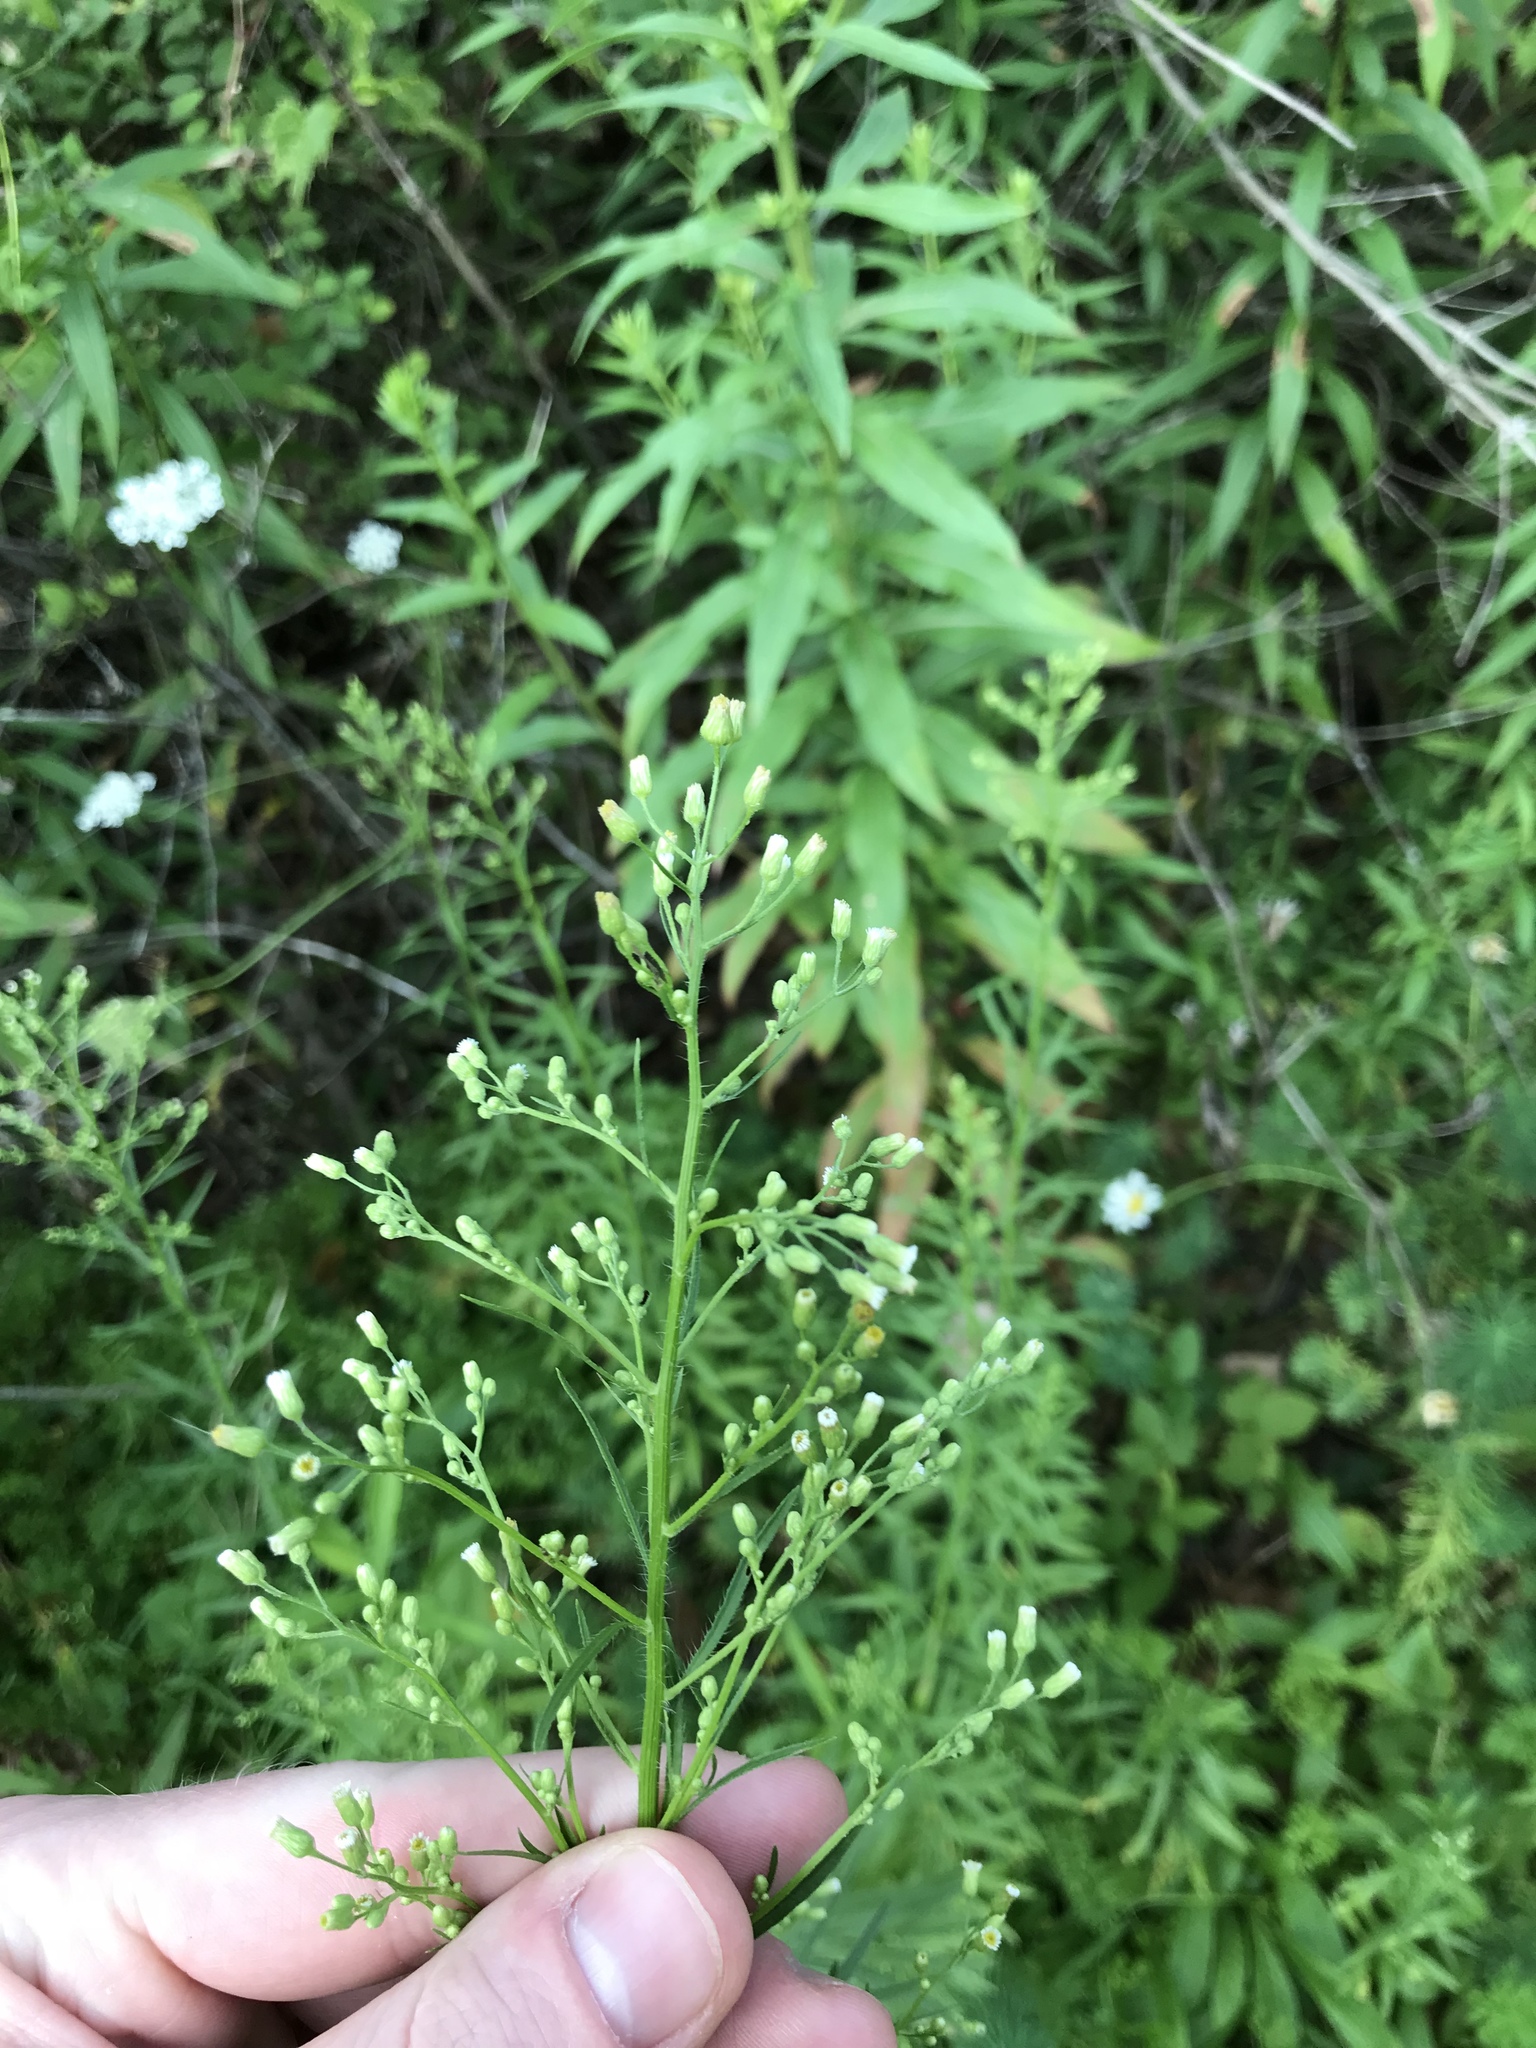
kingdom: Plantae
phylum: Tracheophyta
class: Magnoliopsida
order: Asterales
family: Asteraceae
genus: Erigeron
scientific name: Erigeron canadensis
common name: Canadian fleabane
